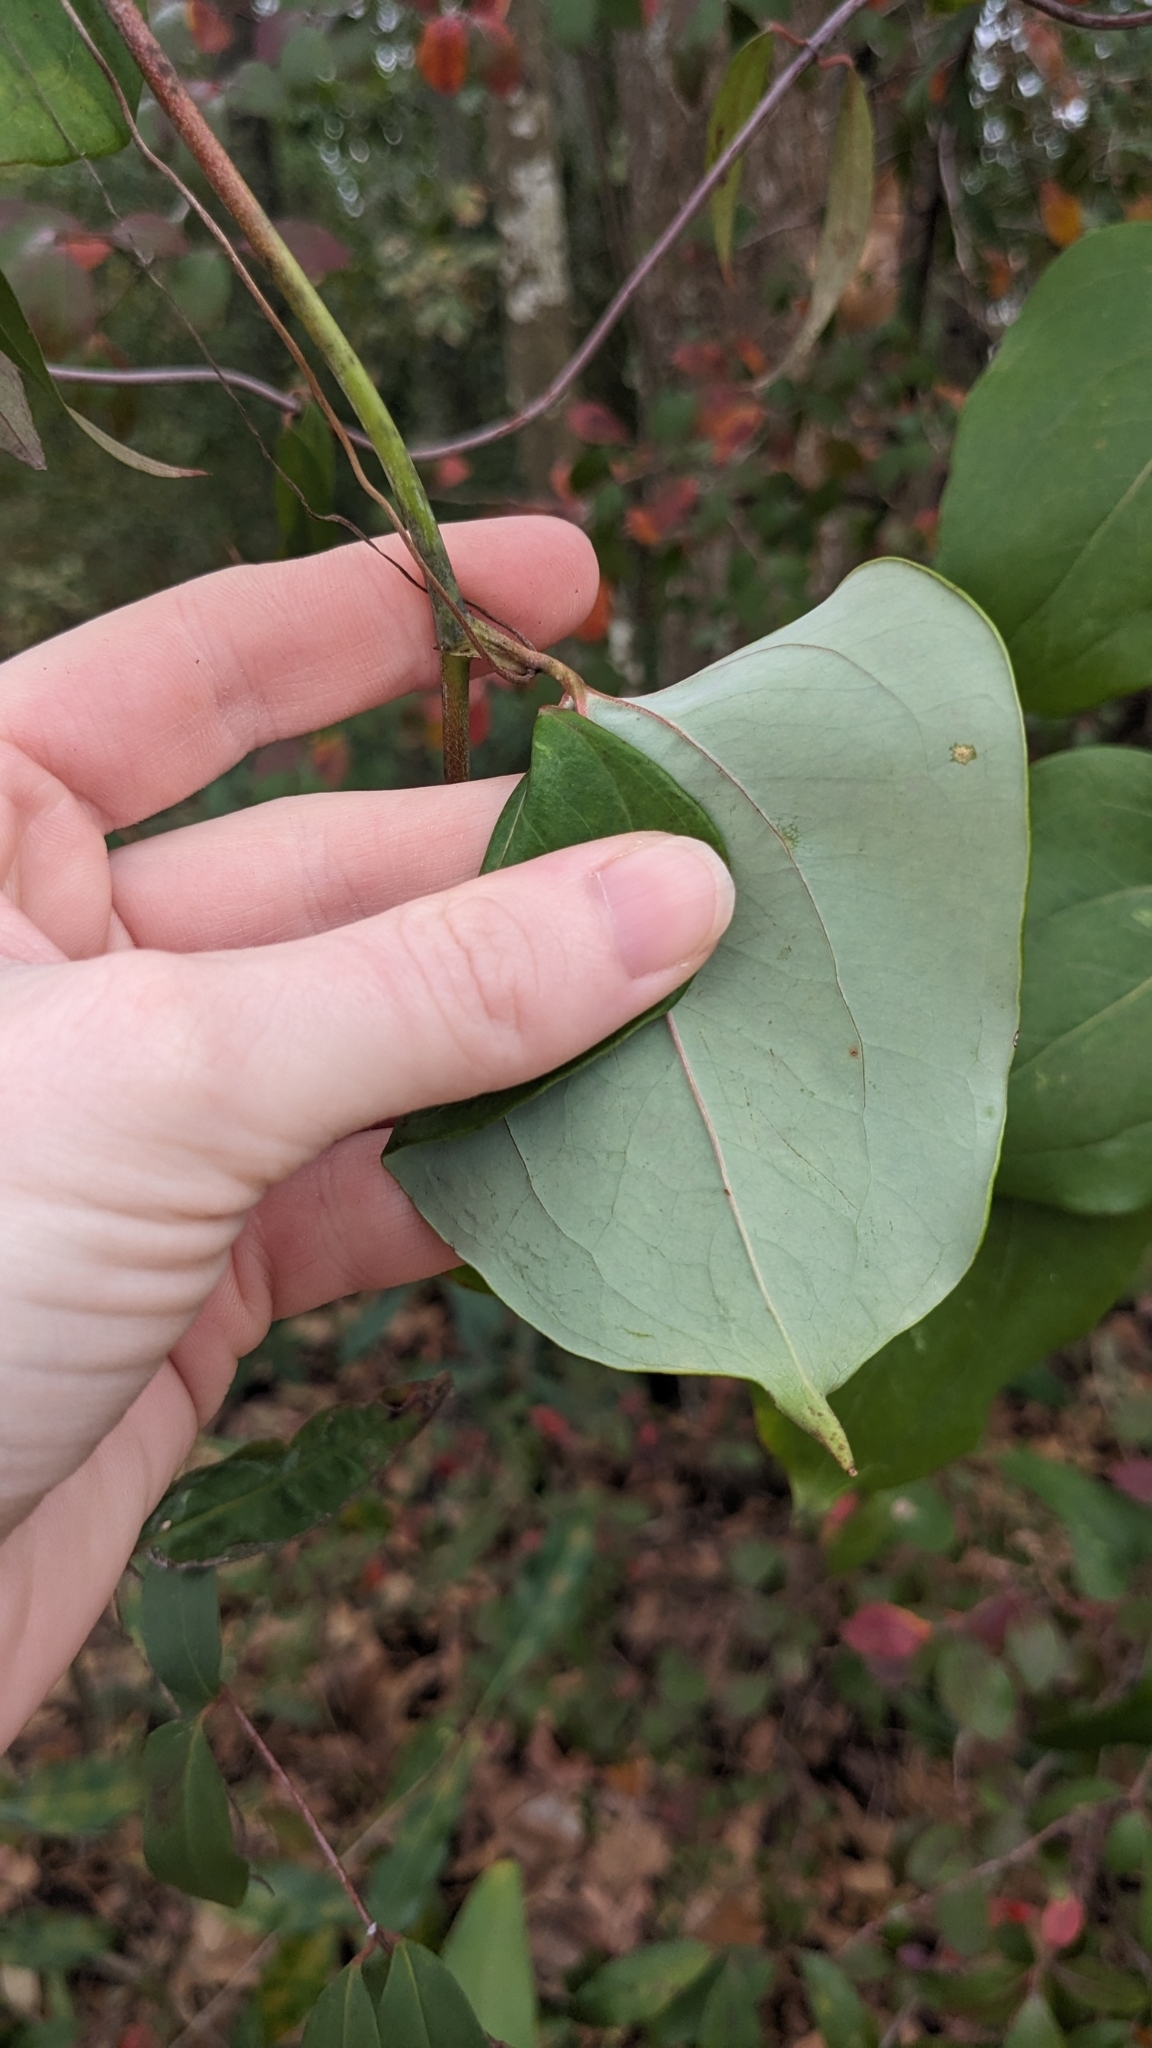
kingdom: Plantae
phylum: Tracheophyta
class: Liliopsida
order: Liliales
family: Smilacaceae
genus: Smilax
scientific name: Smilax glauca
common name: Cat greenbrier
